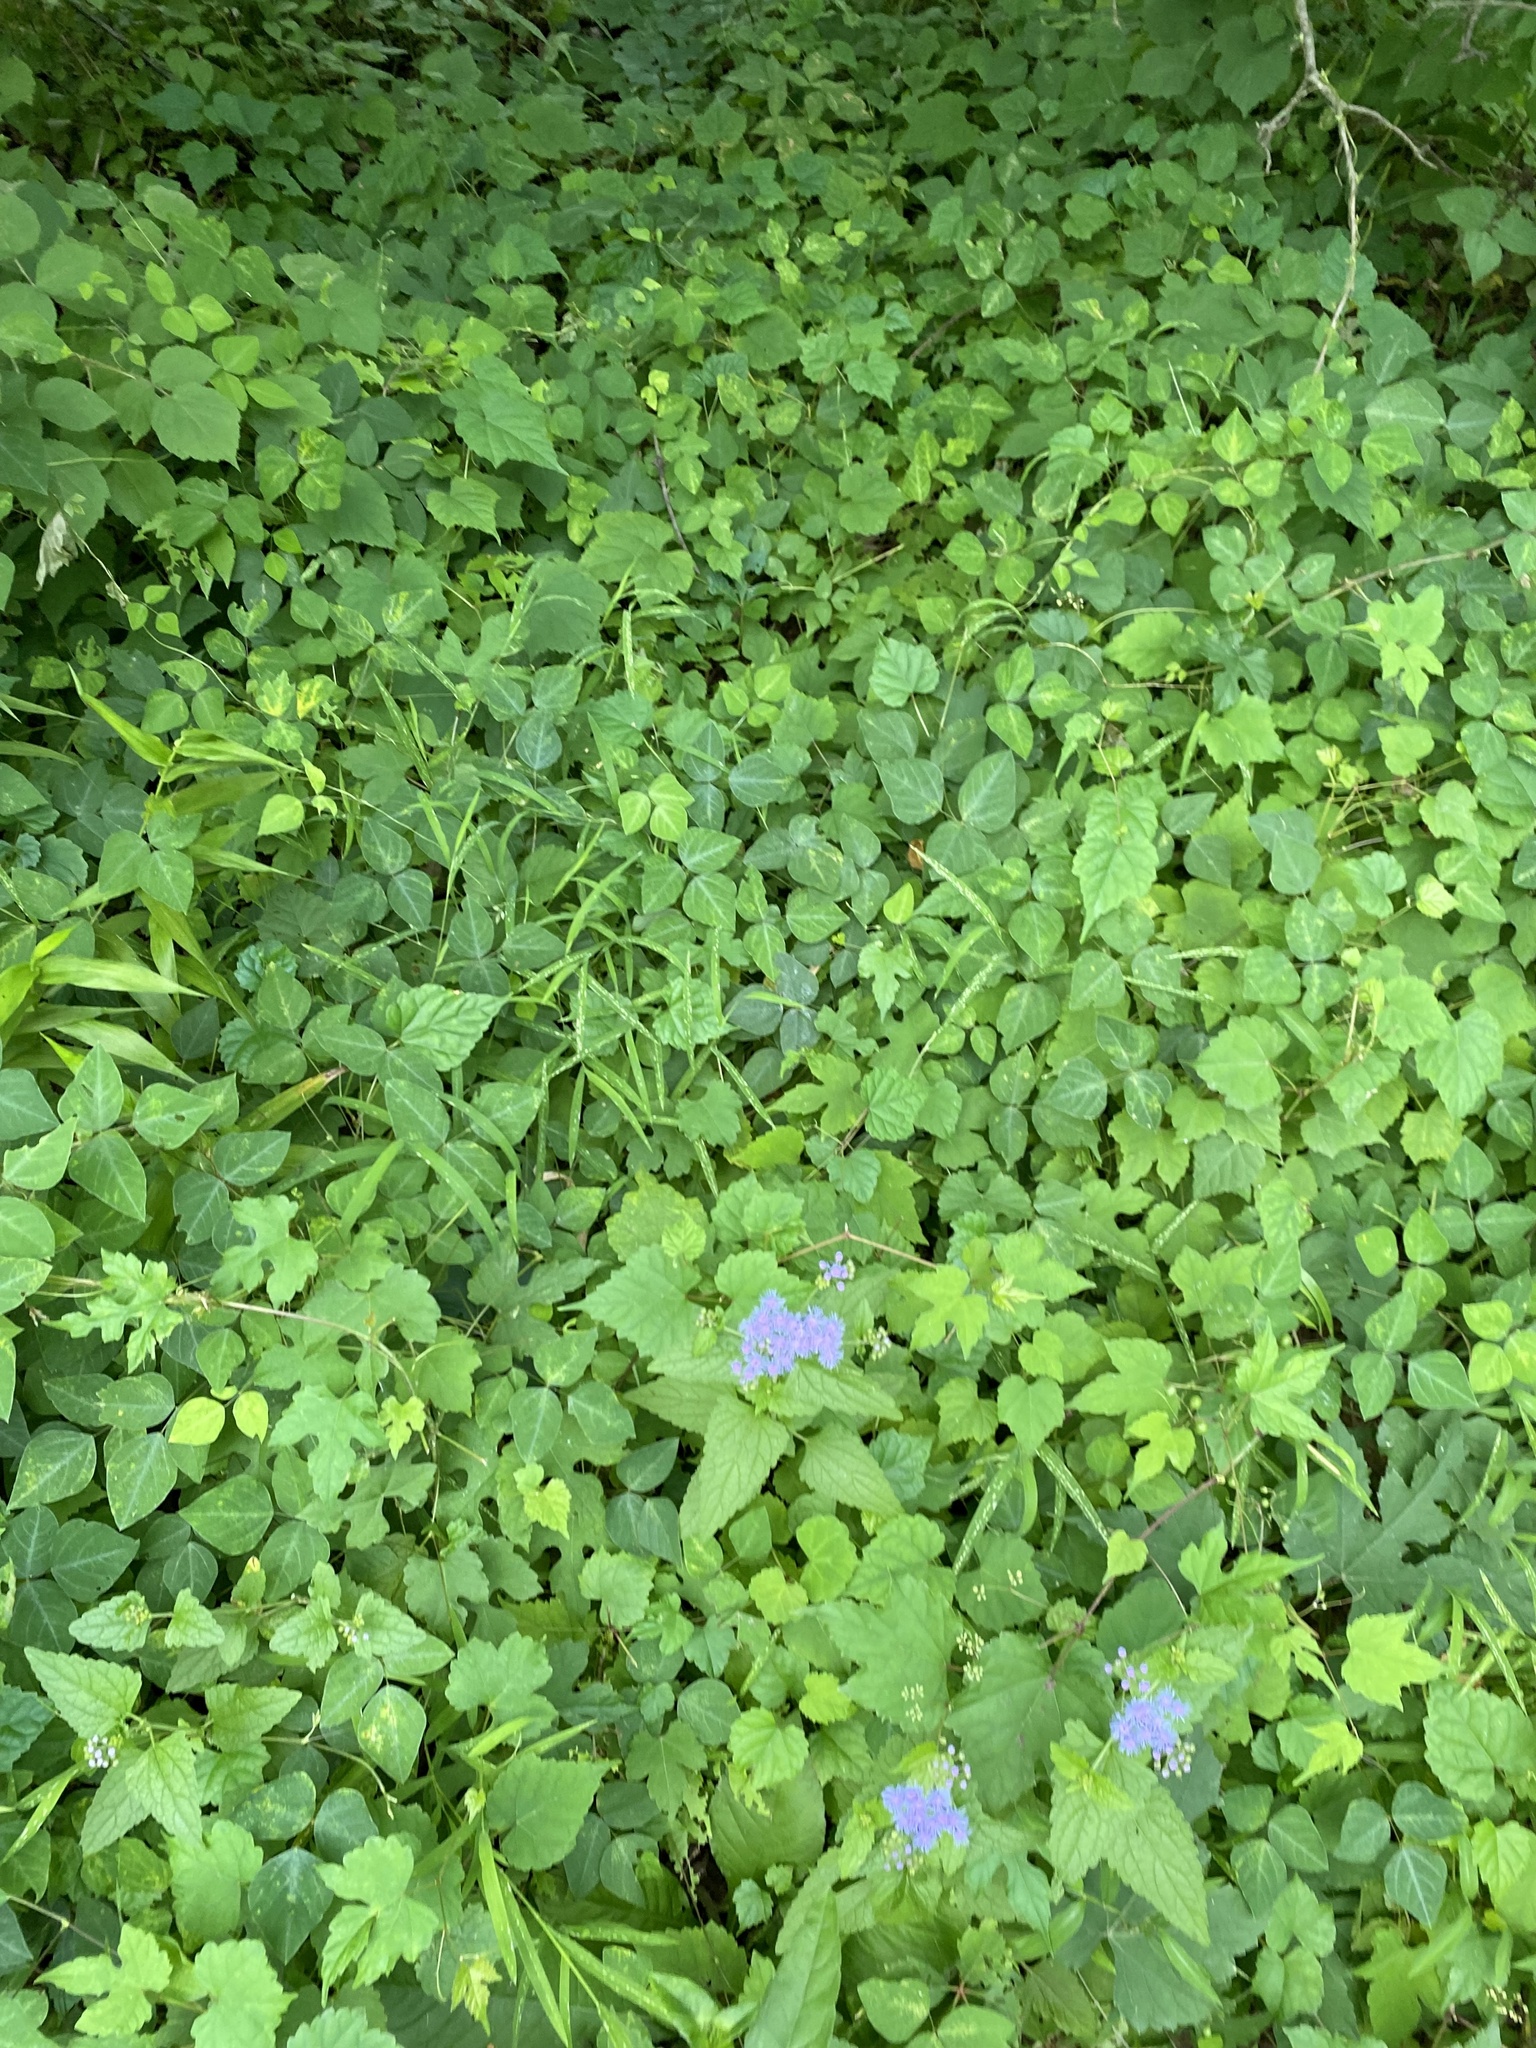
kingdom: Plantae
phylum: Tracheophyta
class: Magnoliopsida
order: Fabales
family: Fabaceae
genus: Amphicarpaea
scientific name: Amphicarpaea bracteata
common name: American hog peanut
